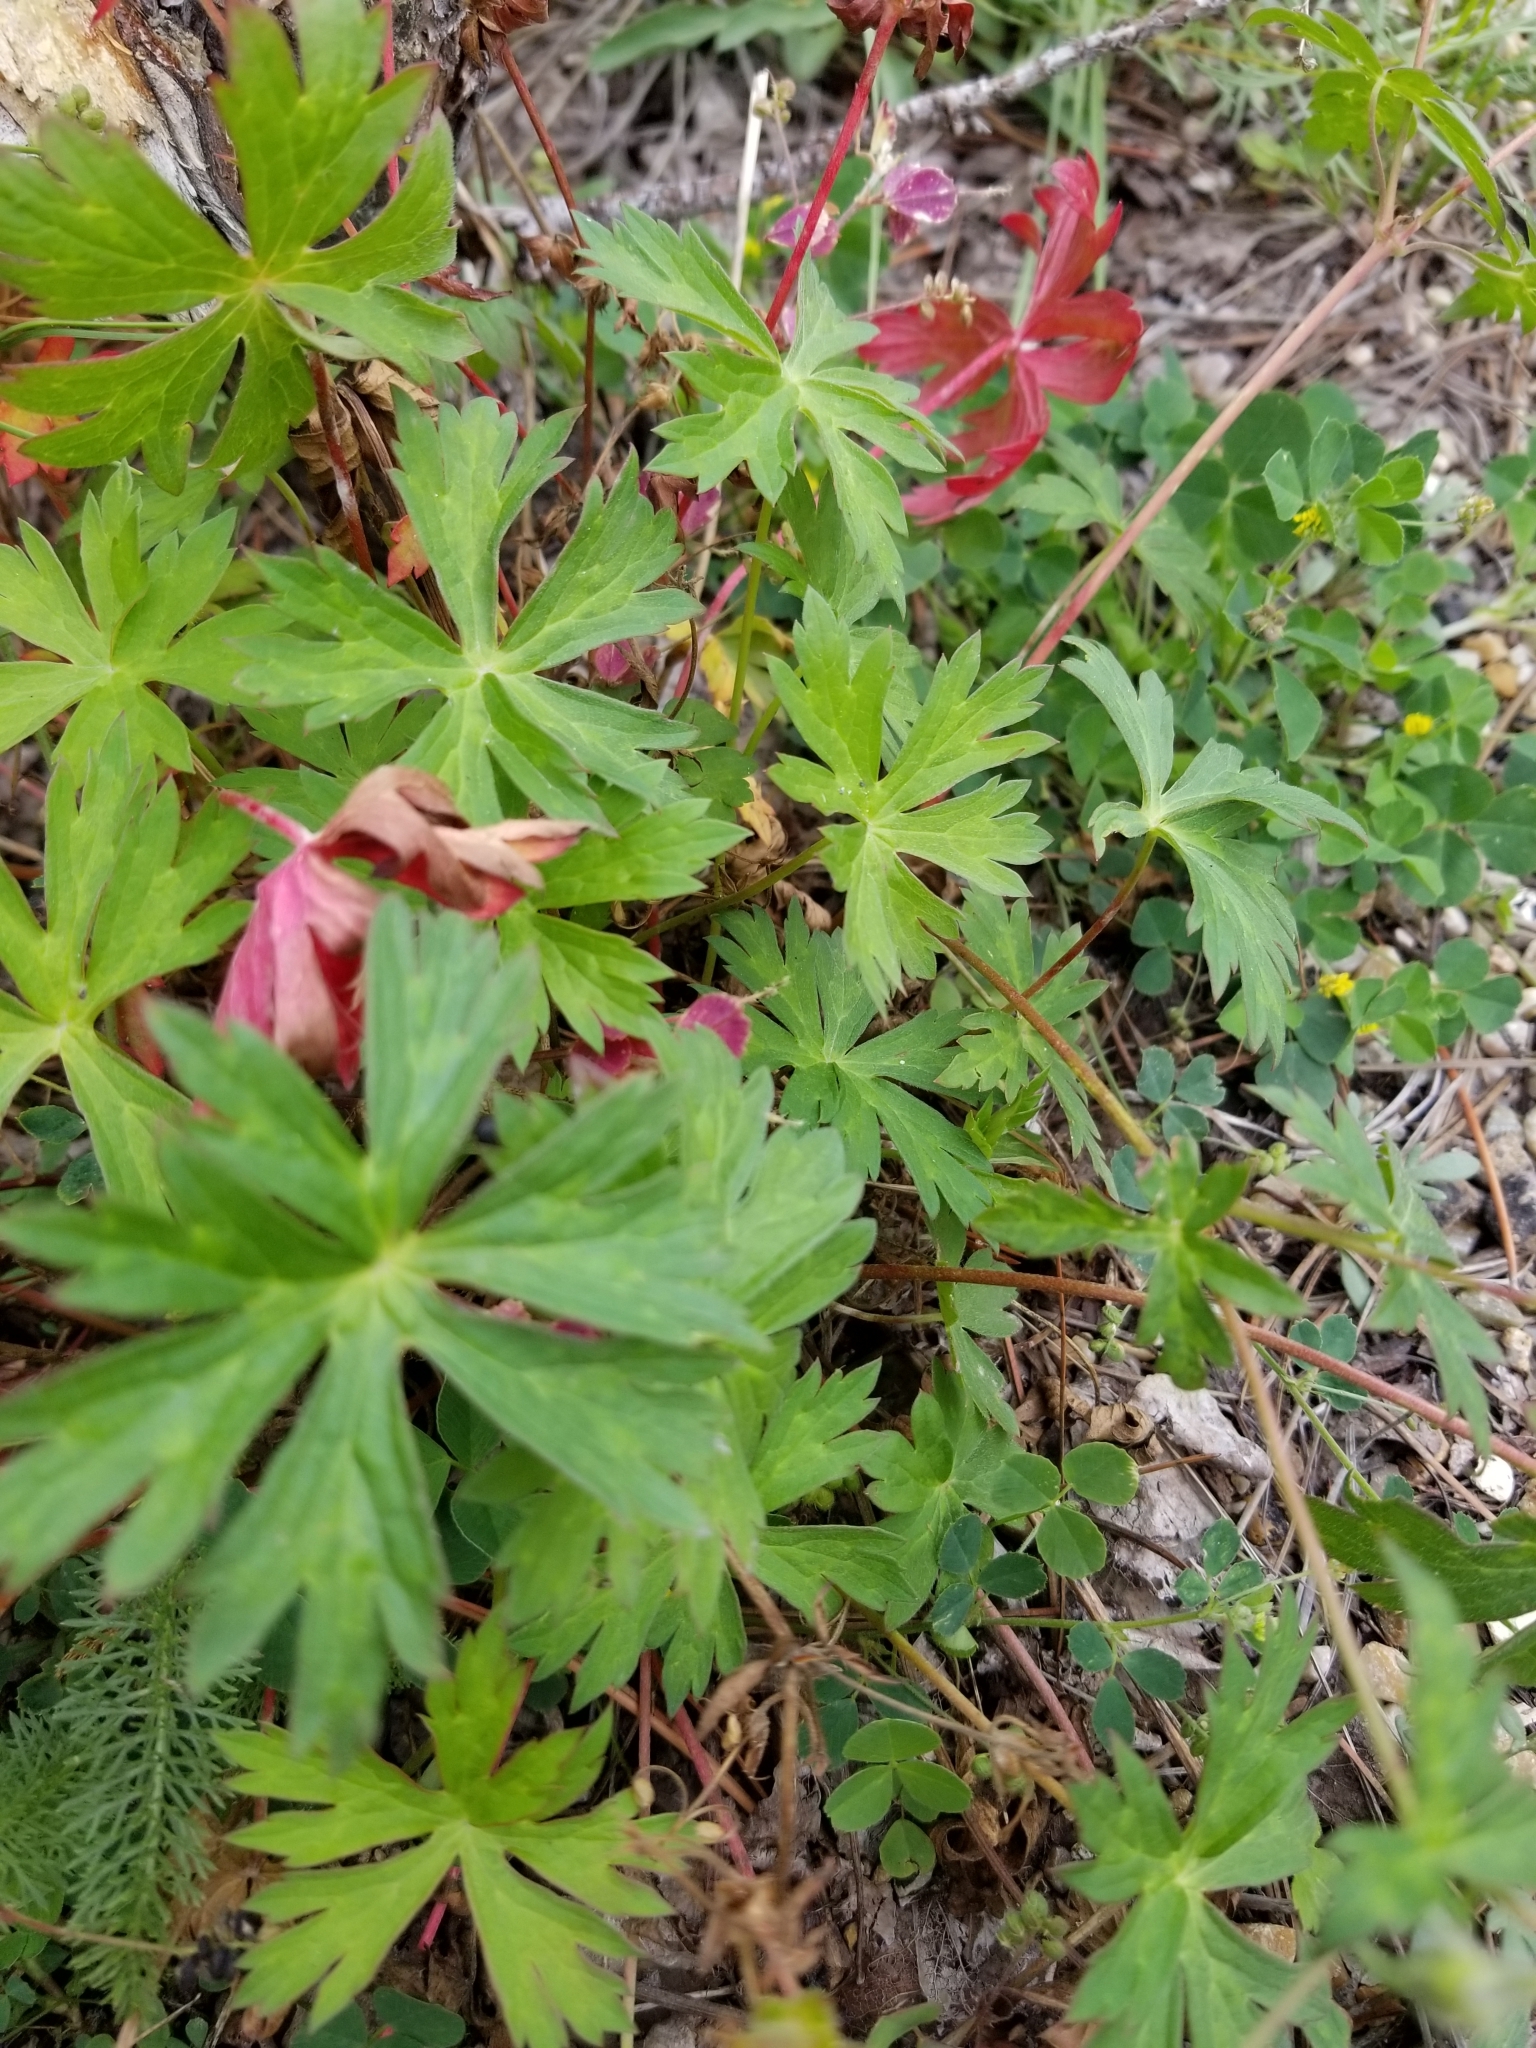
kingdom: Plantae
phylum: Tracheophyta
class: Magnoliopsida
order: Geraniales
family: Geraniaceae
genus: Geranium
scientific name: Geranium richardsonii
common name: Richardson's crane's-bill
